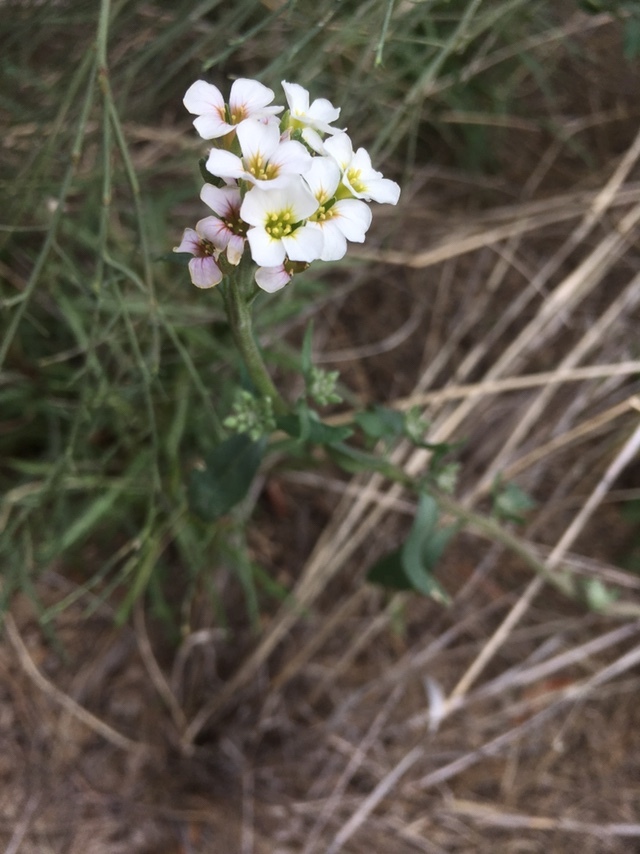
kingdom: Plantae
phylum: Tracheophyta
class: Magnoliopsida
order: Brassicales
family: Brassicaceae
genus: Physaria
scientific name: Physaria purpurea
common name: Rose bladderpod
